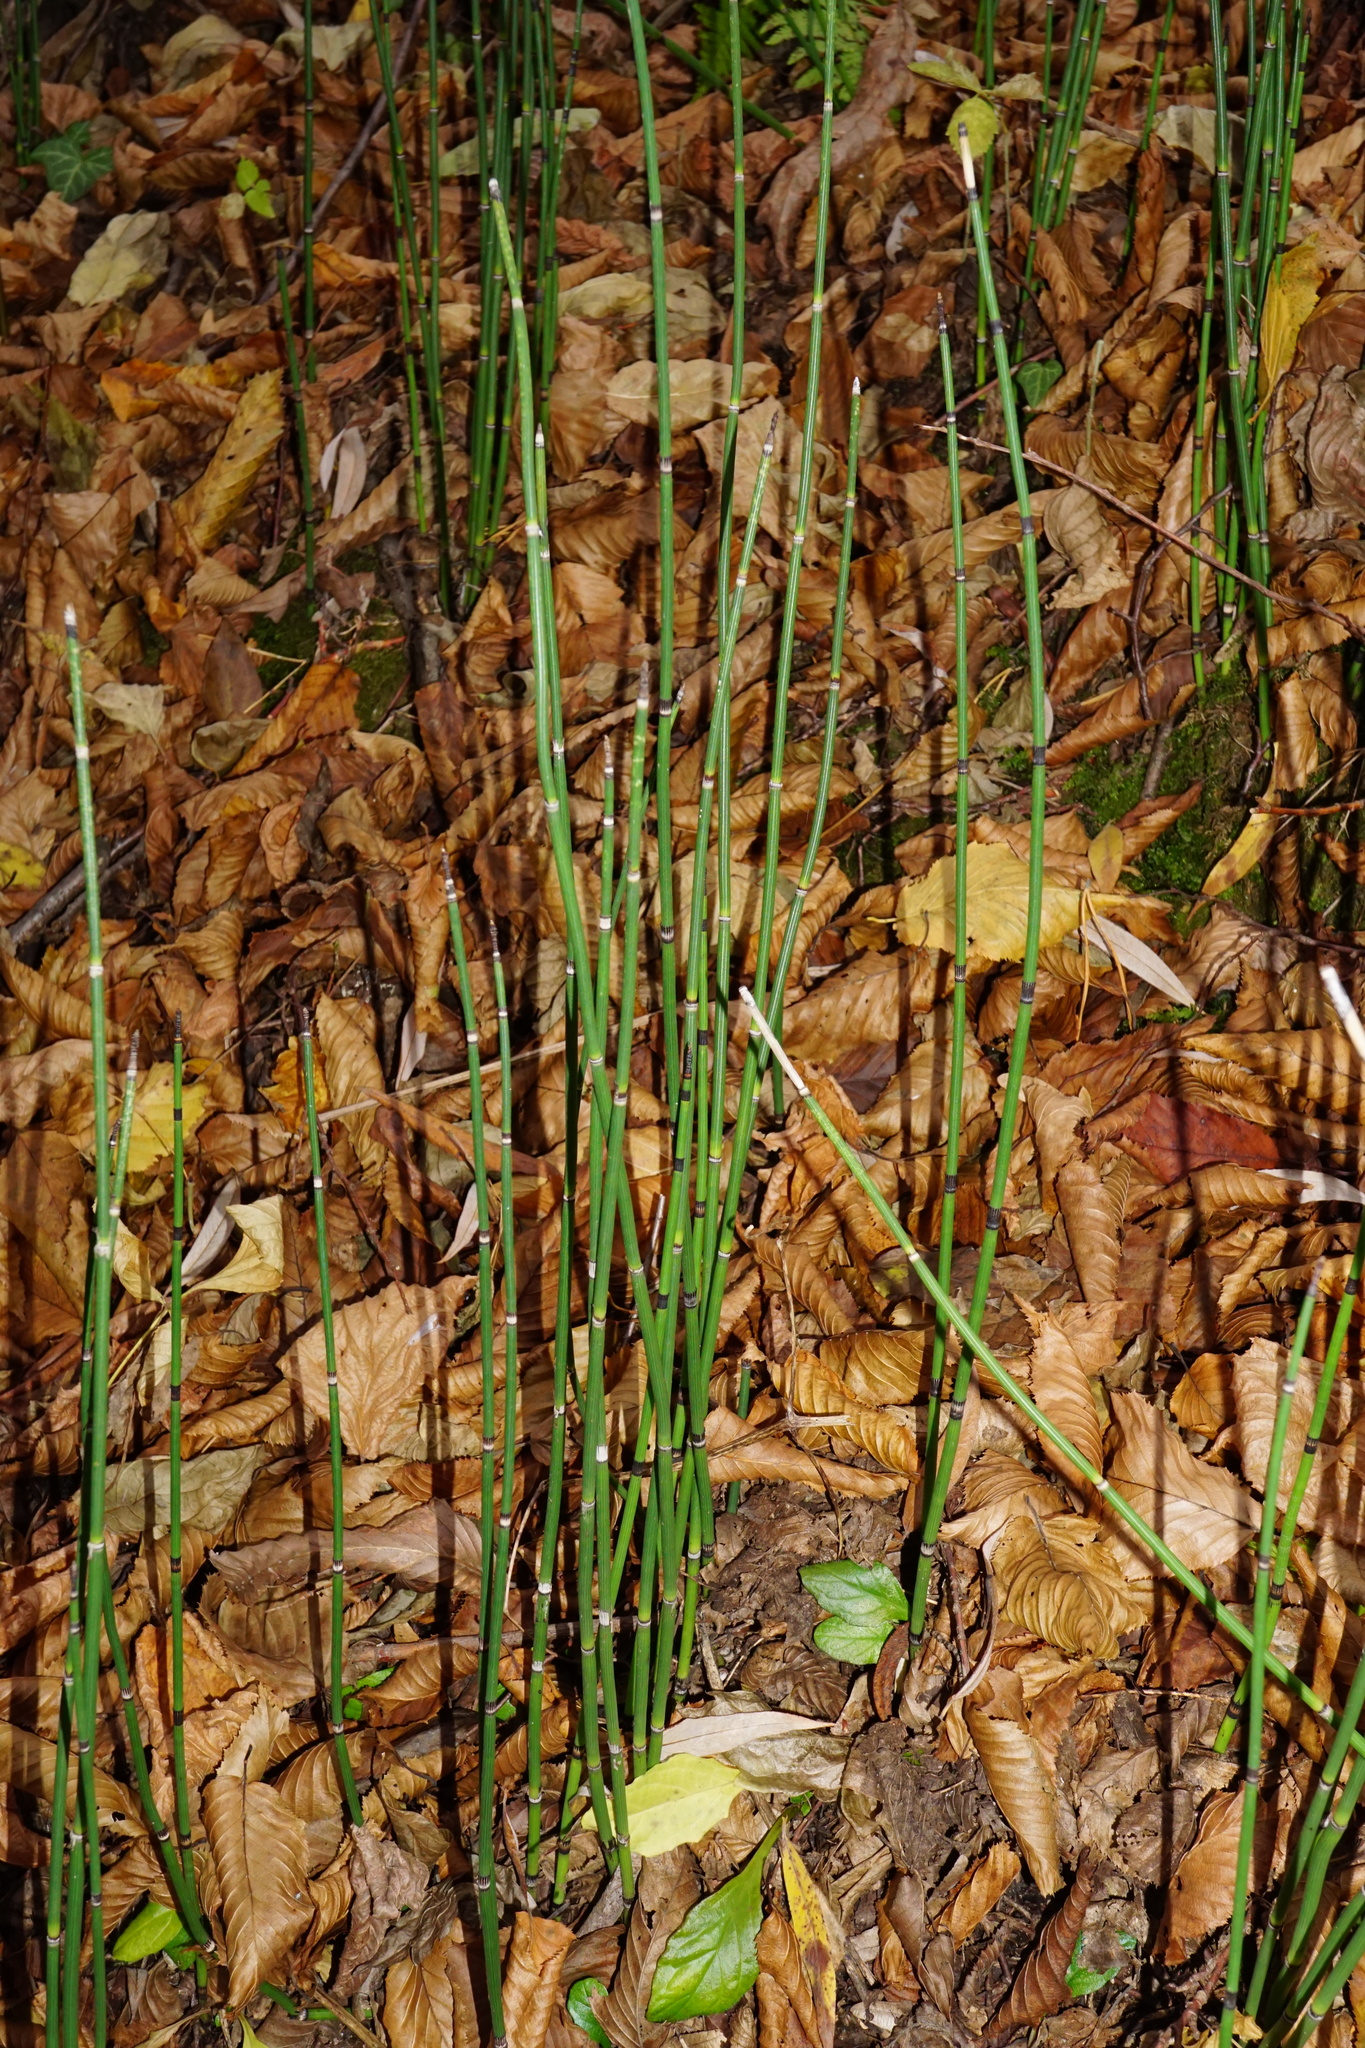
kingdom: Plantae
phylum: Tracheophyta
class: Polypodiopsida
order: Equisetales
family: Equisetaceae
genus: Equisetum
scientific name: Equisetum hyemale
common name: Rough horsetail
